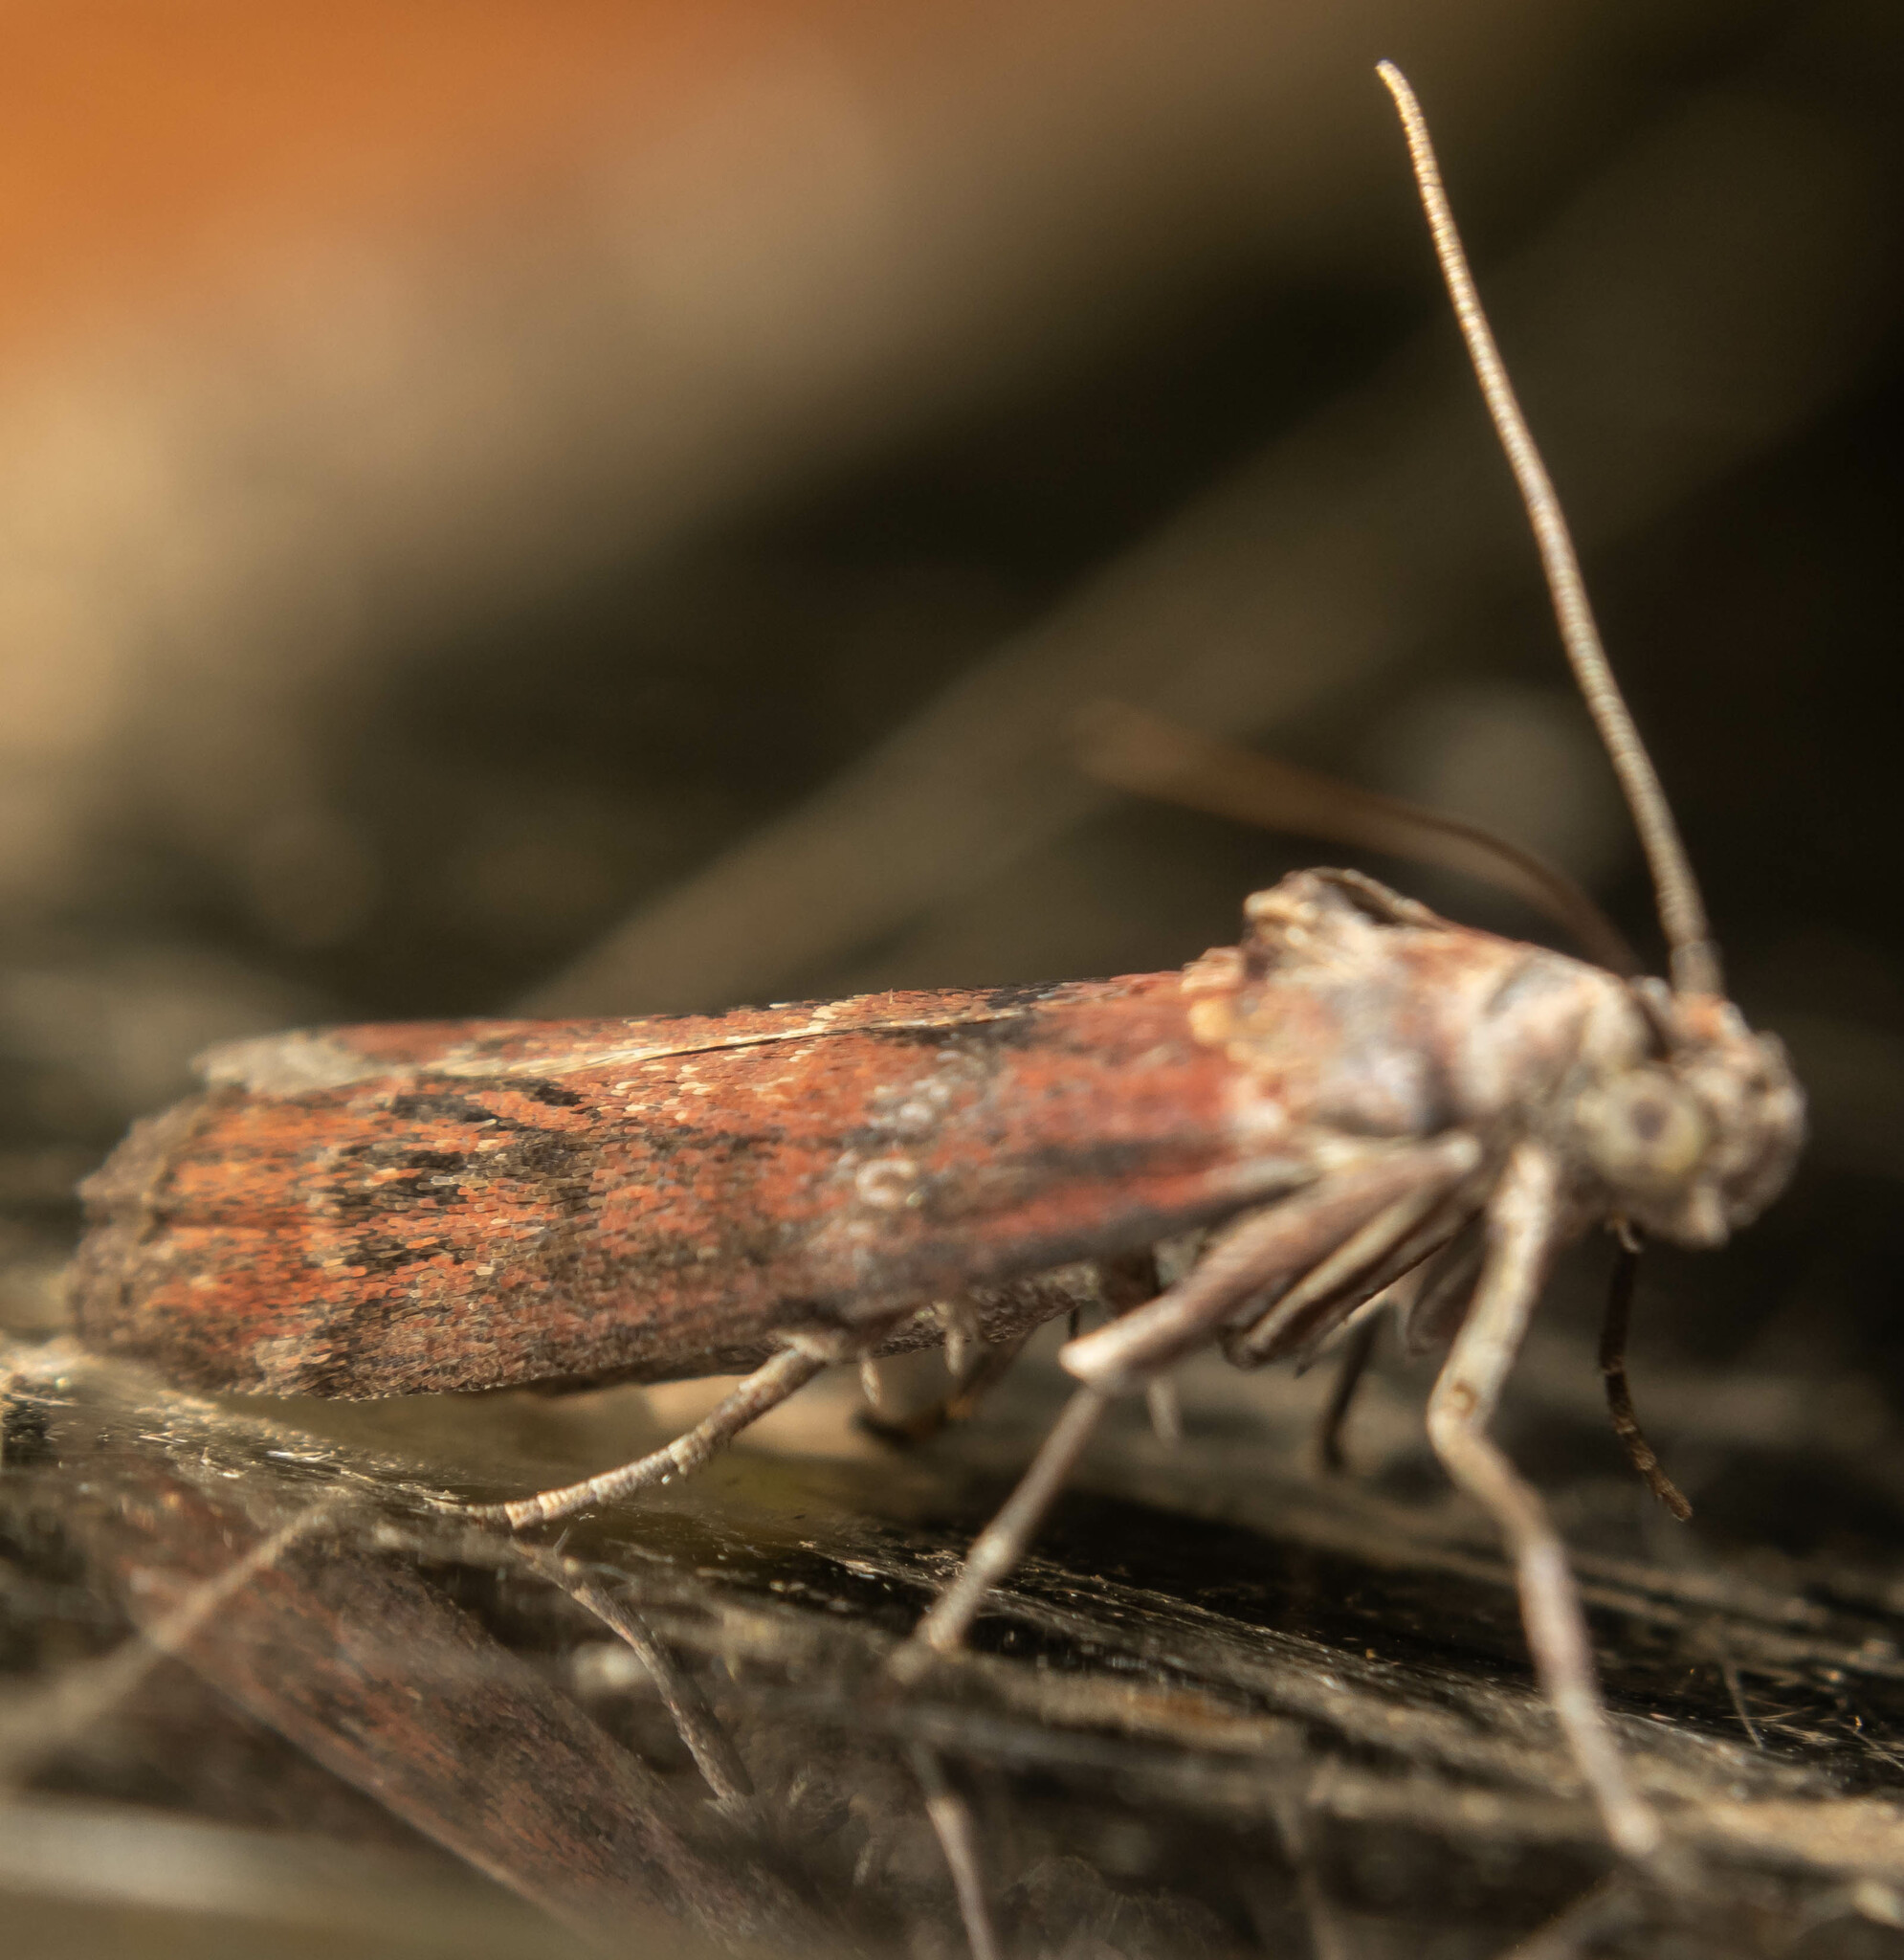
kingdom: Animalia
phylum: Arthropoda
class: Insecta
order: Lepidoptera
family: Pyralidae
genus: Phycita
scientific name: Phycita roborella
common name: Dotted oak knot-horn
